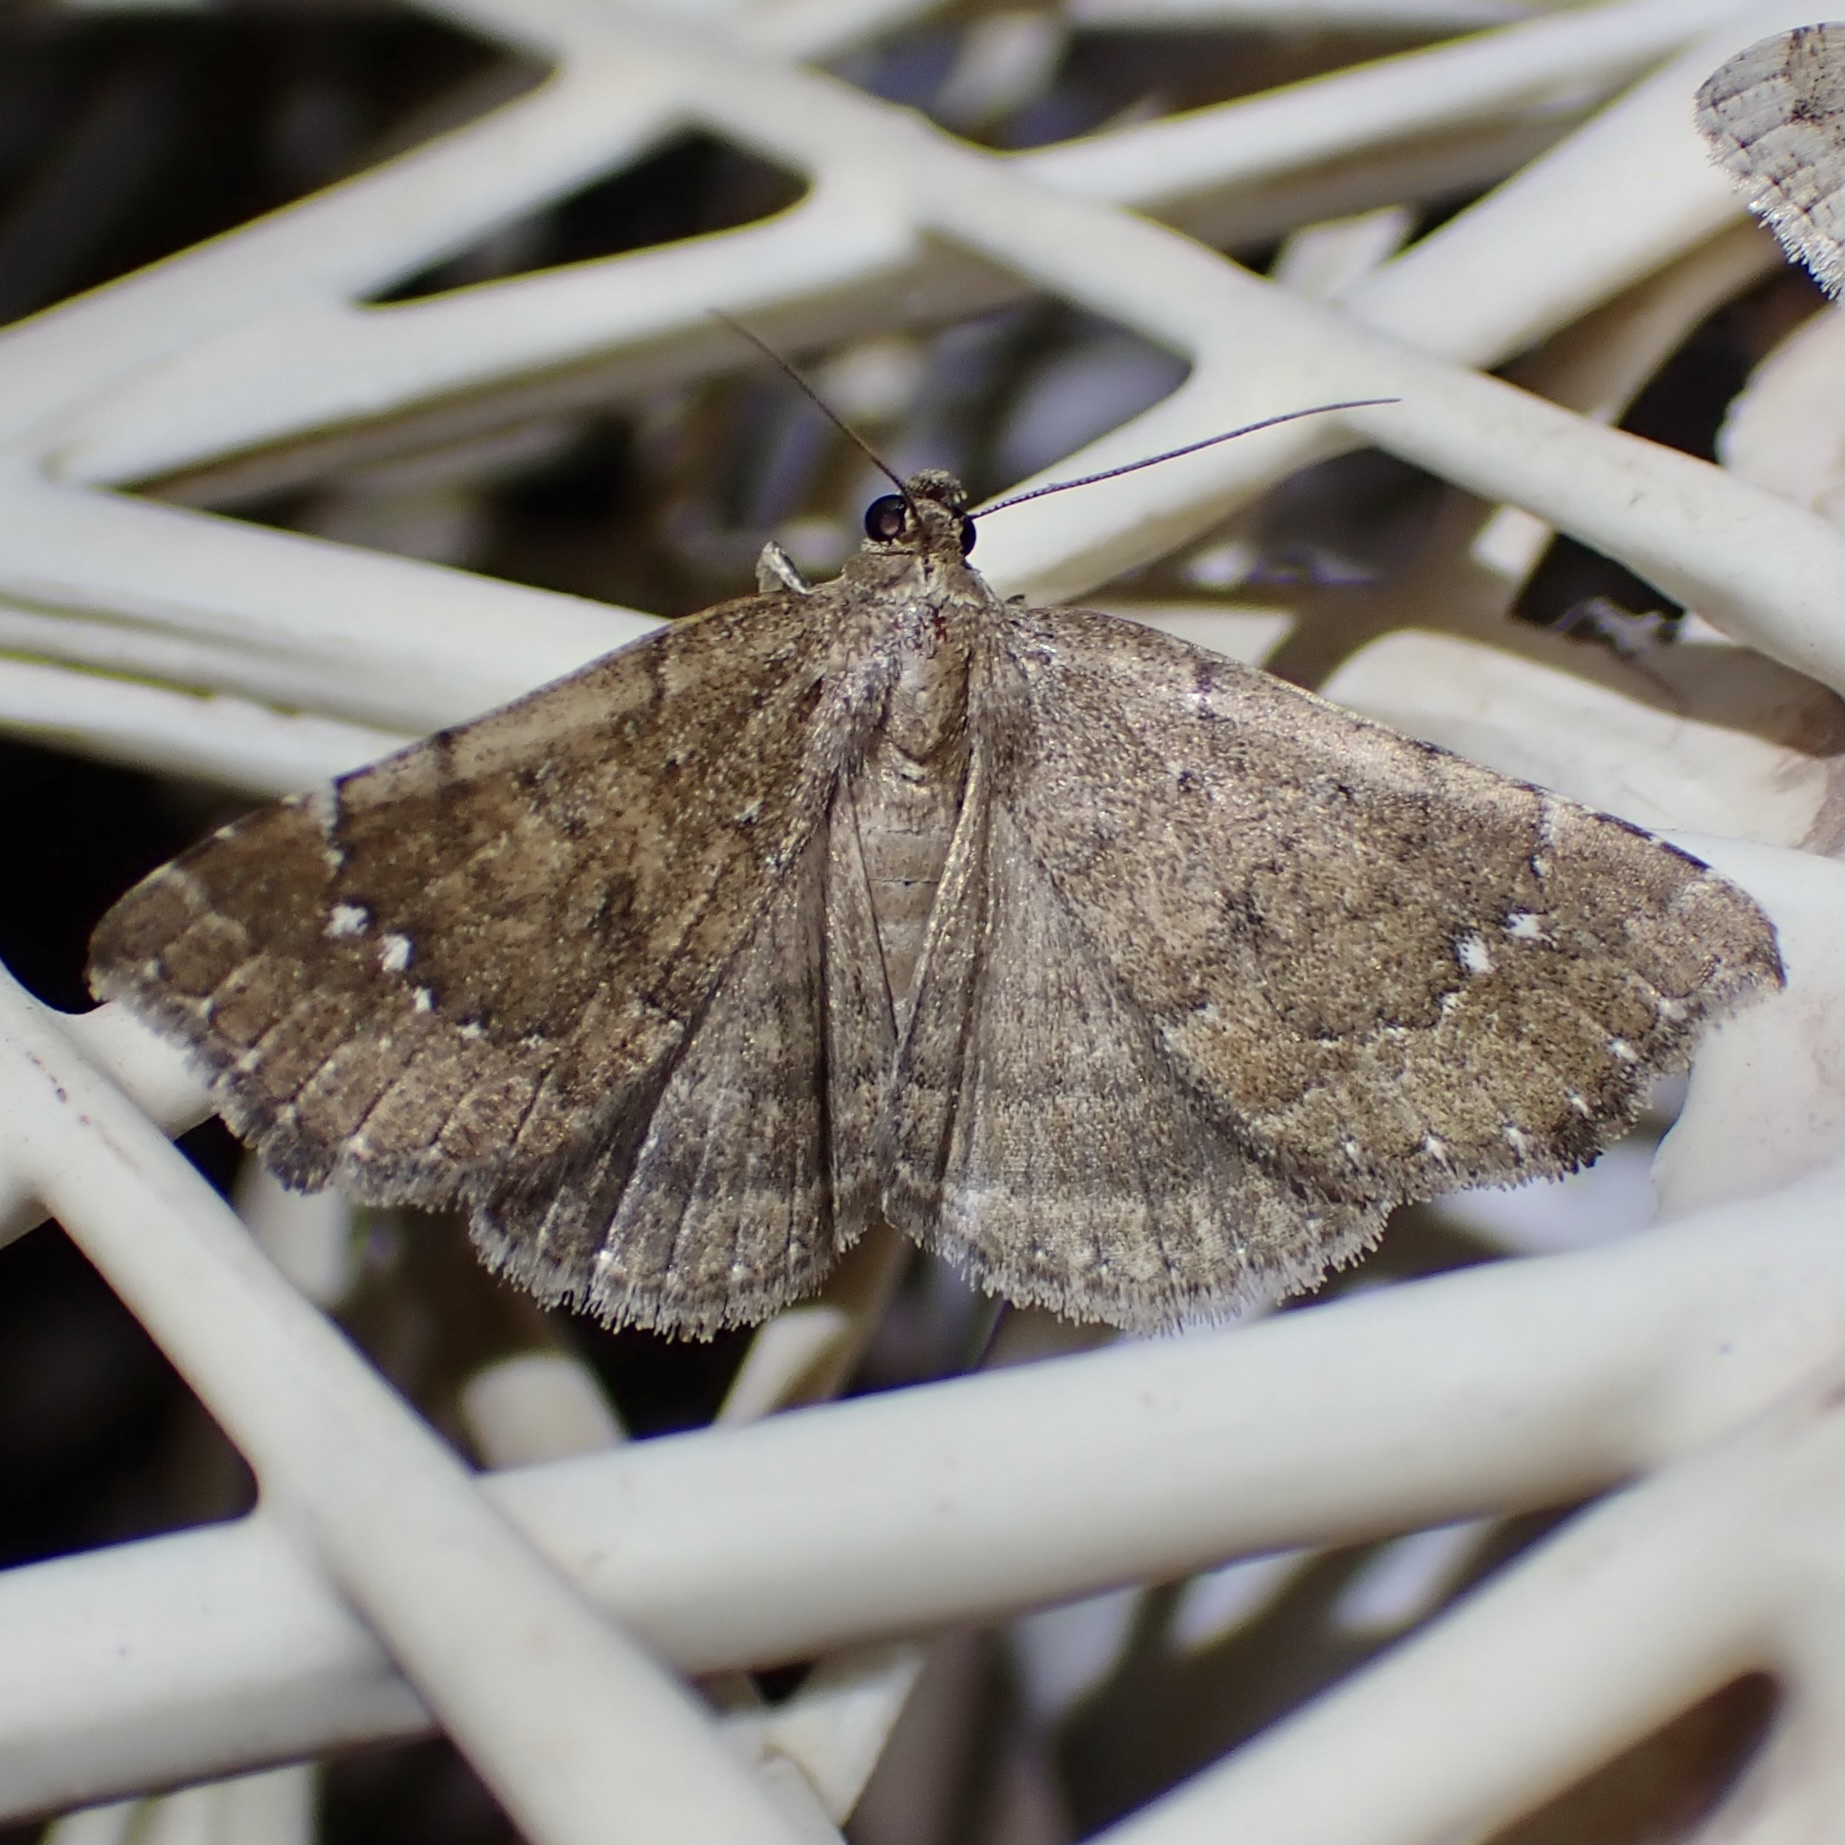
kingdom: Animalia
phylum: Arthropoda
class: Insecta
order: Lepidoptera
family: Erebidae
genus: Focillidia
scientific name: Focillidia texana
